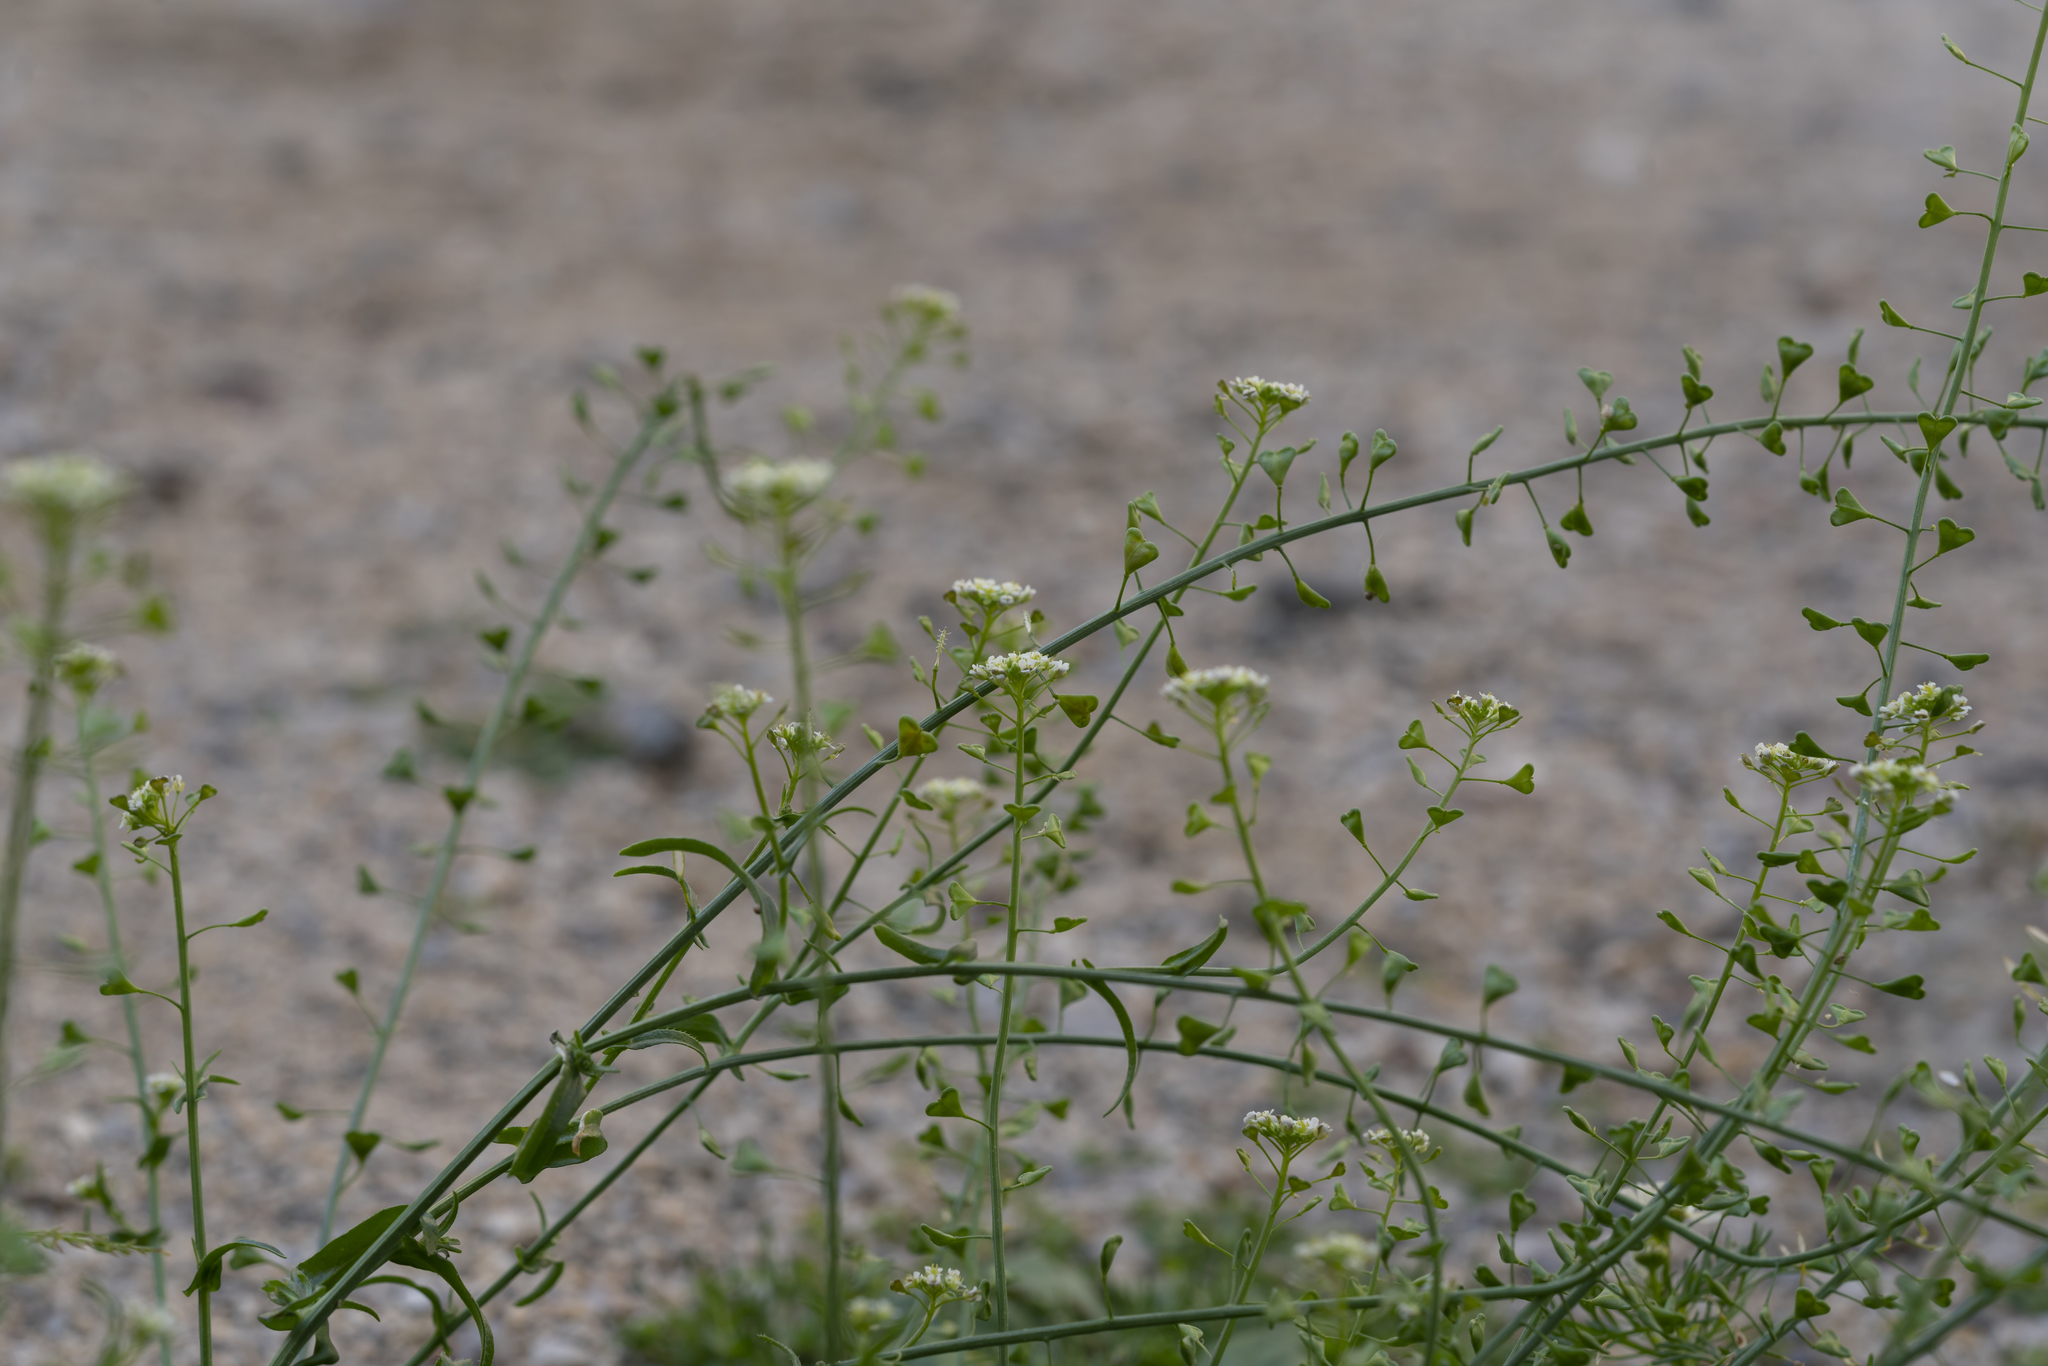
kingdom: Plantae
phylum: Tracheophyta
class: Magnoliopsida
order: Brassicales
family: Brassicaceae
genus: Capsella
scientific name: Capsella rubella
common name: Pink shepherd's-purse
